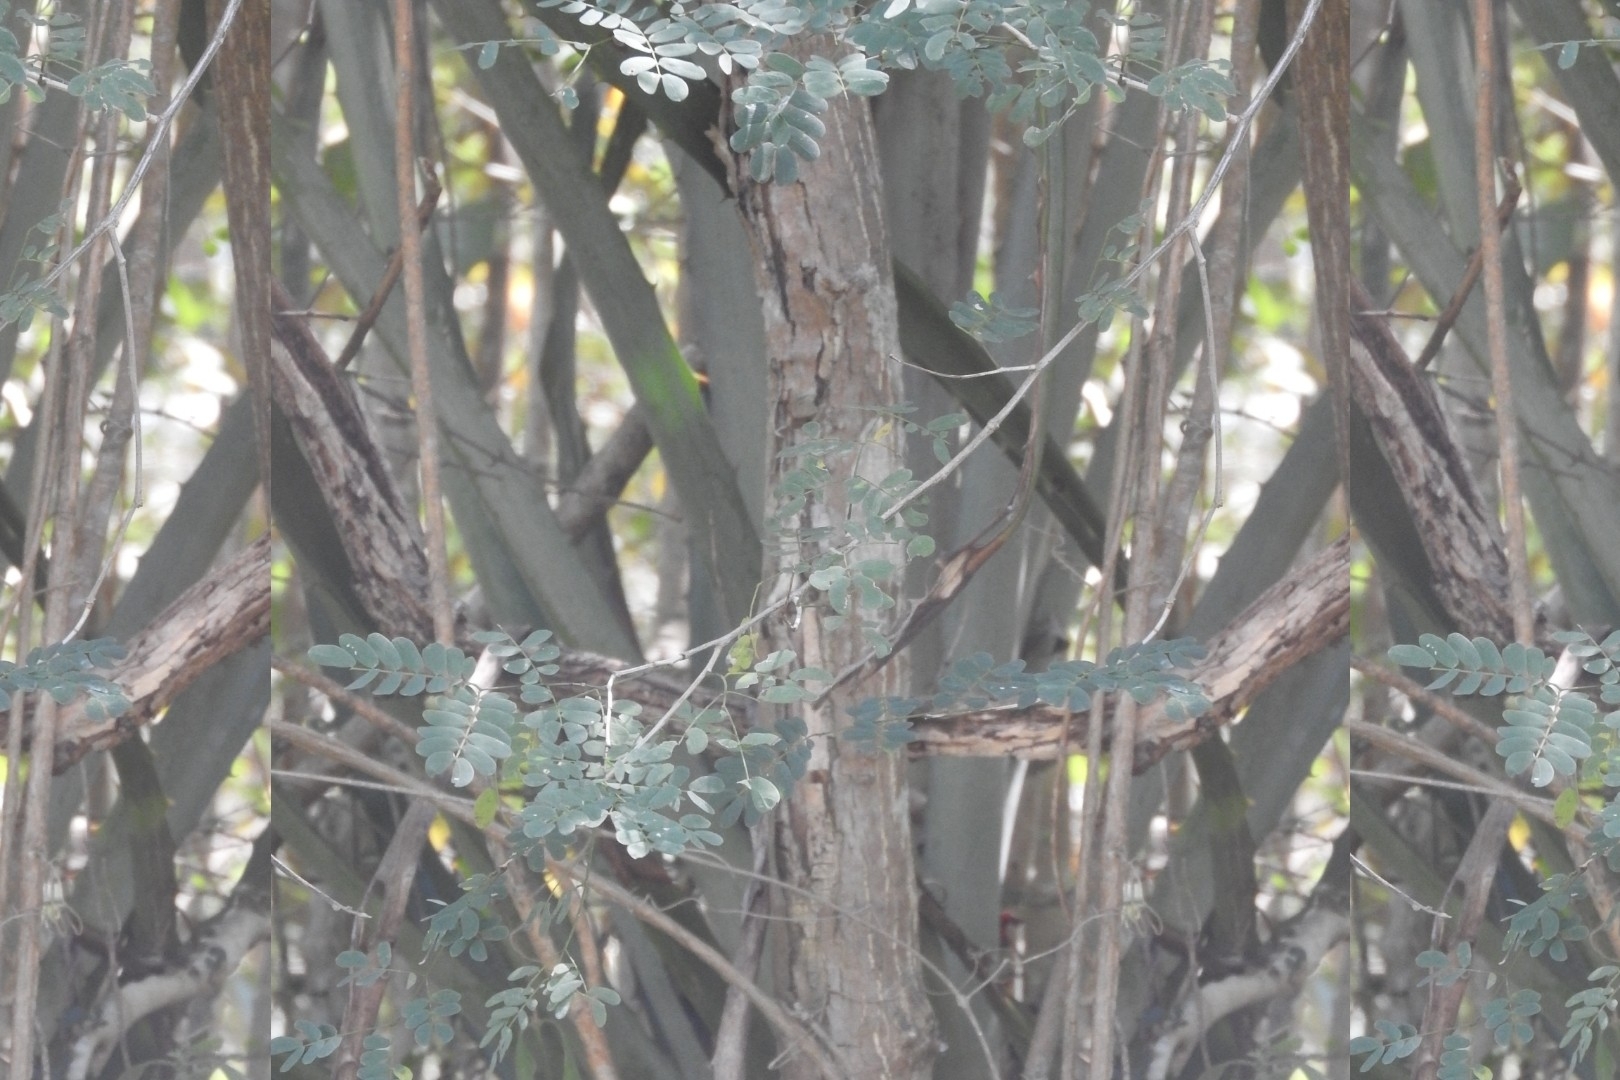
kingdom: Plantae
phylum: Tracheophyta
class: Magnoliopsida
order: Caryophyllales
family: Polygonaceae
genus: Gymnopodium
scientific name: Gymnopodium floribundum
